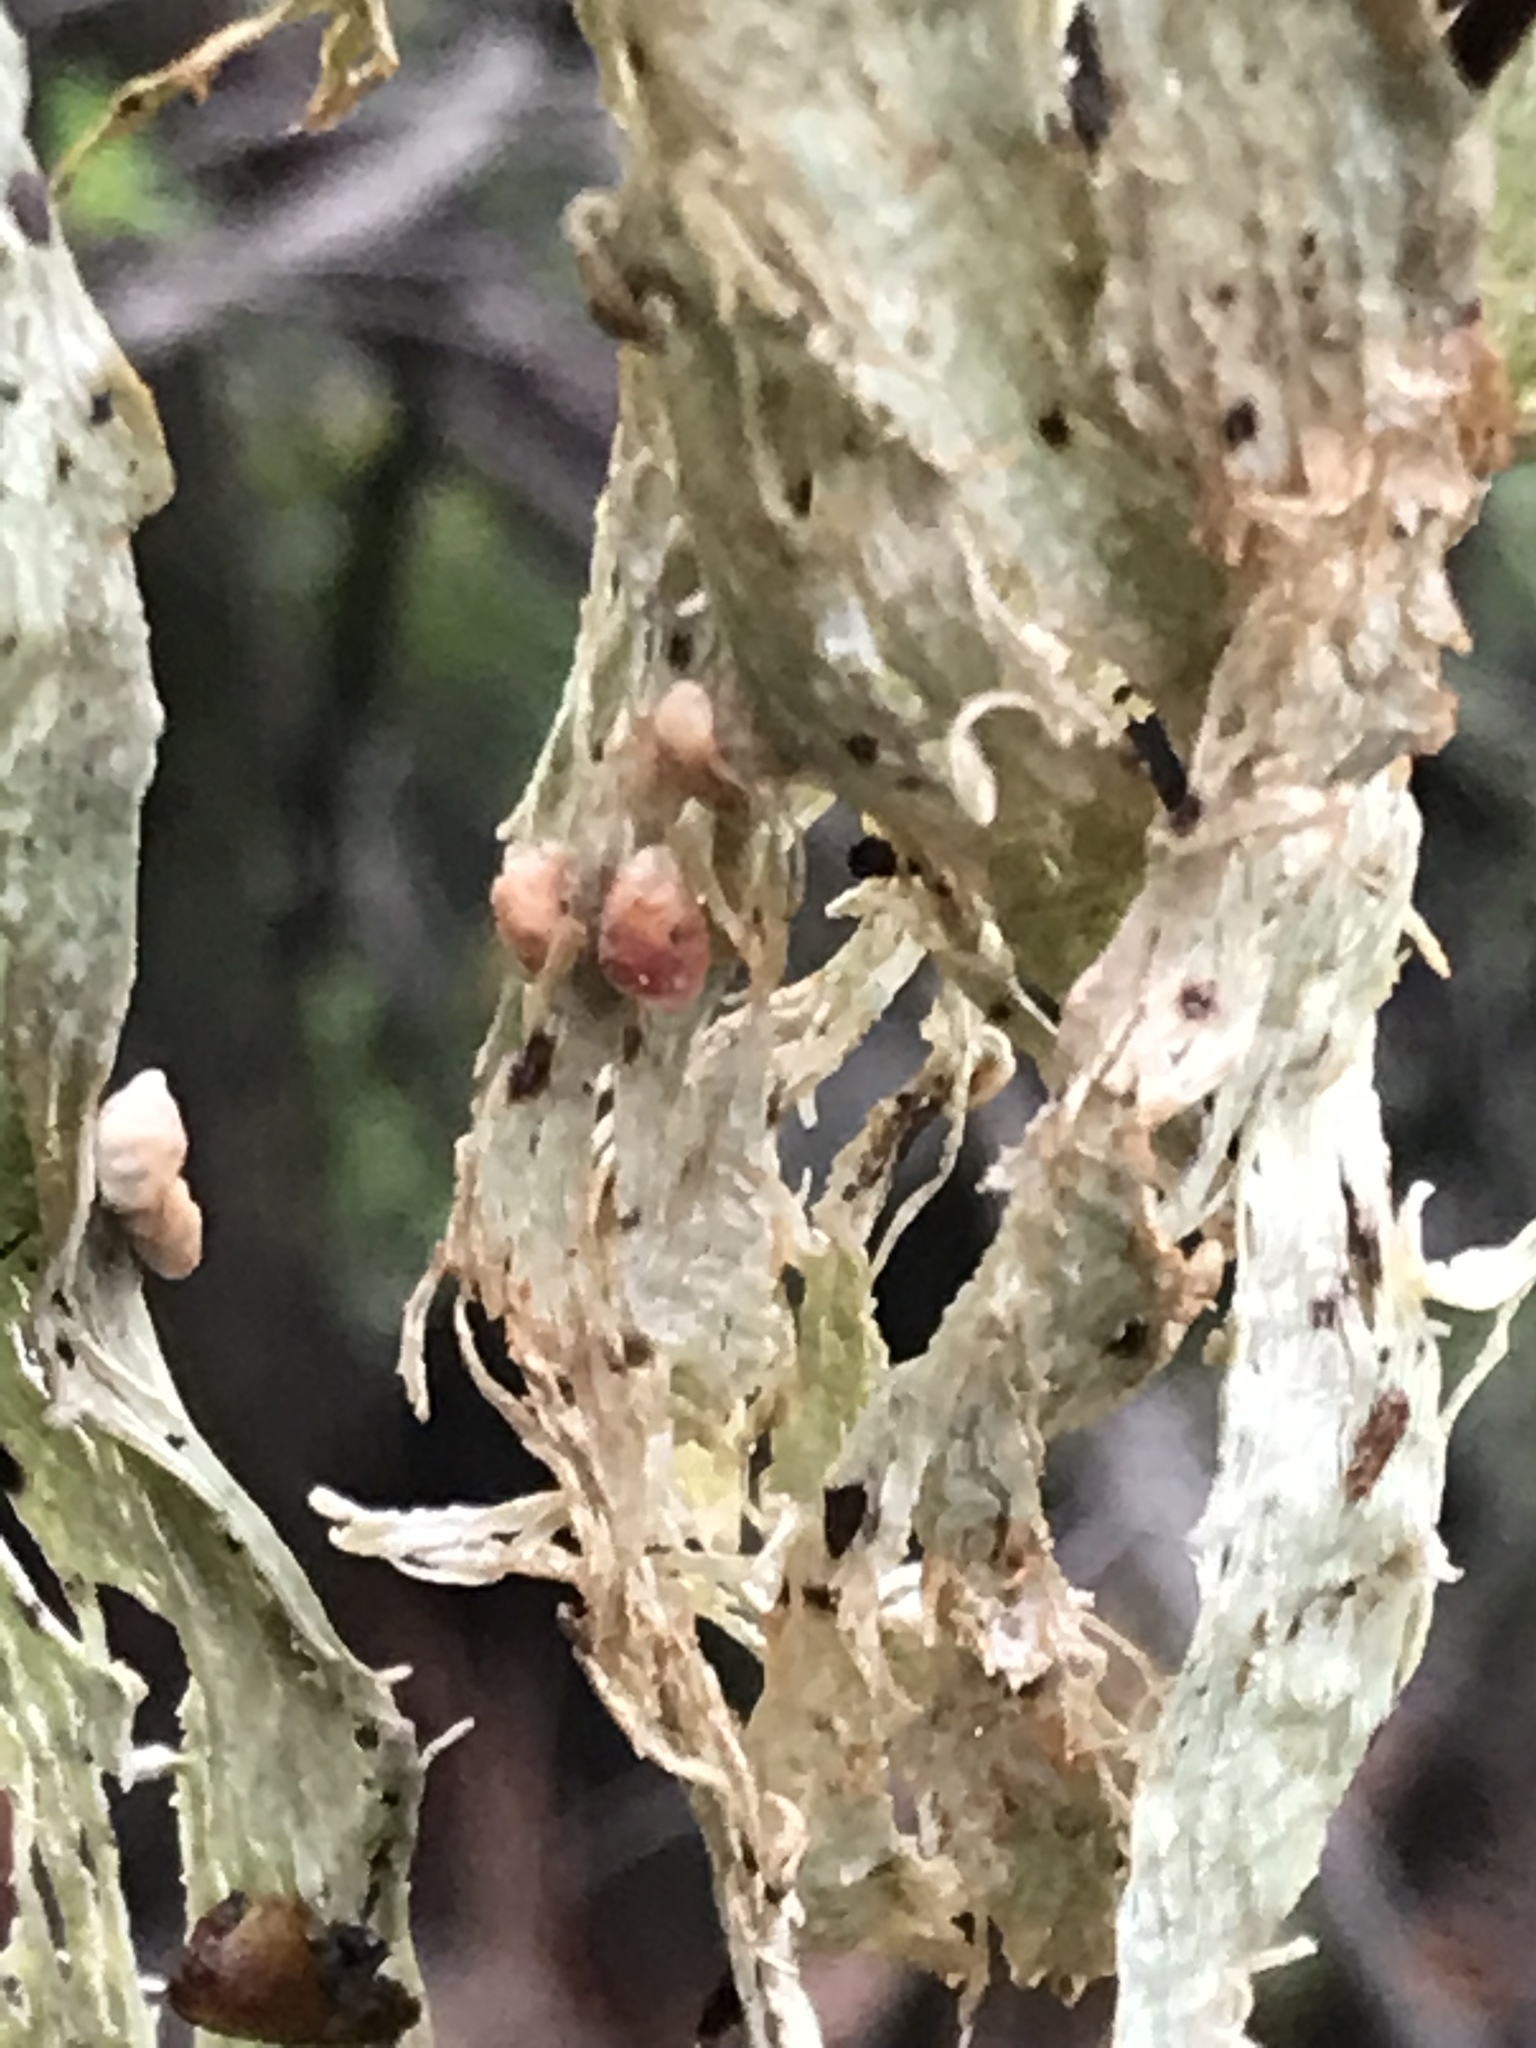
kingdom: Fungi
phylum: Ascomycota
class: Lecanoromycetes
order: Lecanorales
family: Ramalinaceae
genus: Ramalina
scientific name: Ramalina
